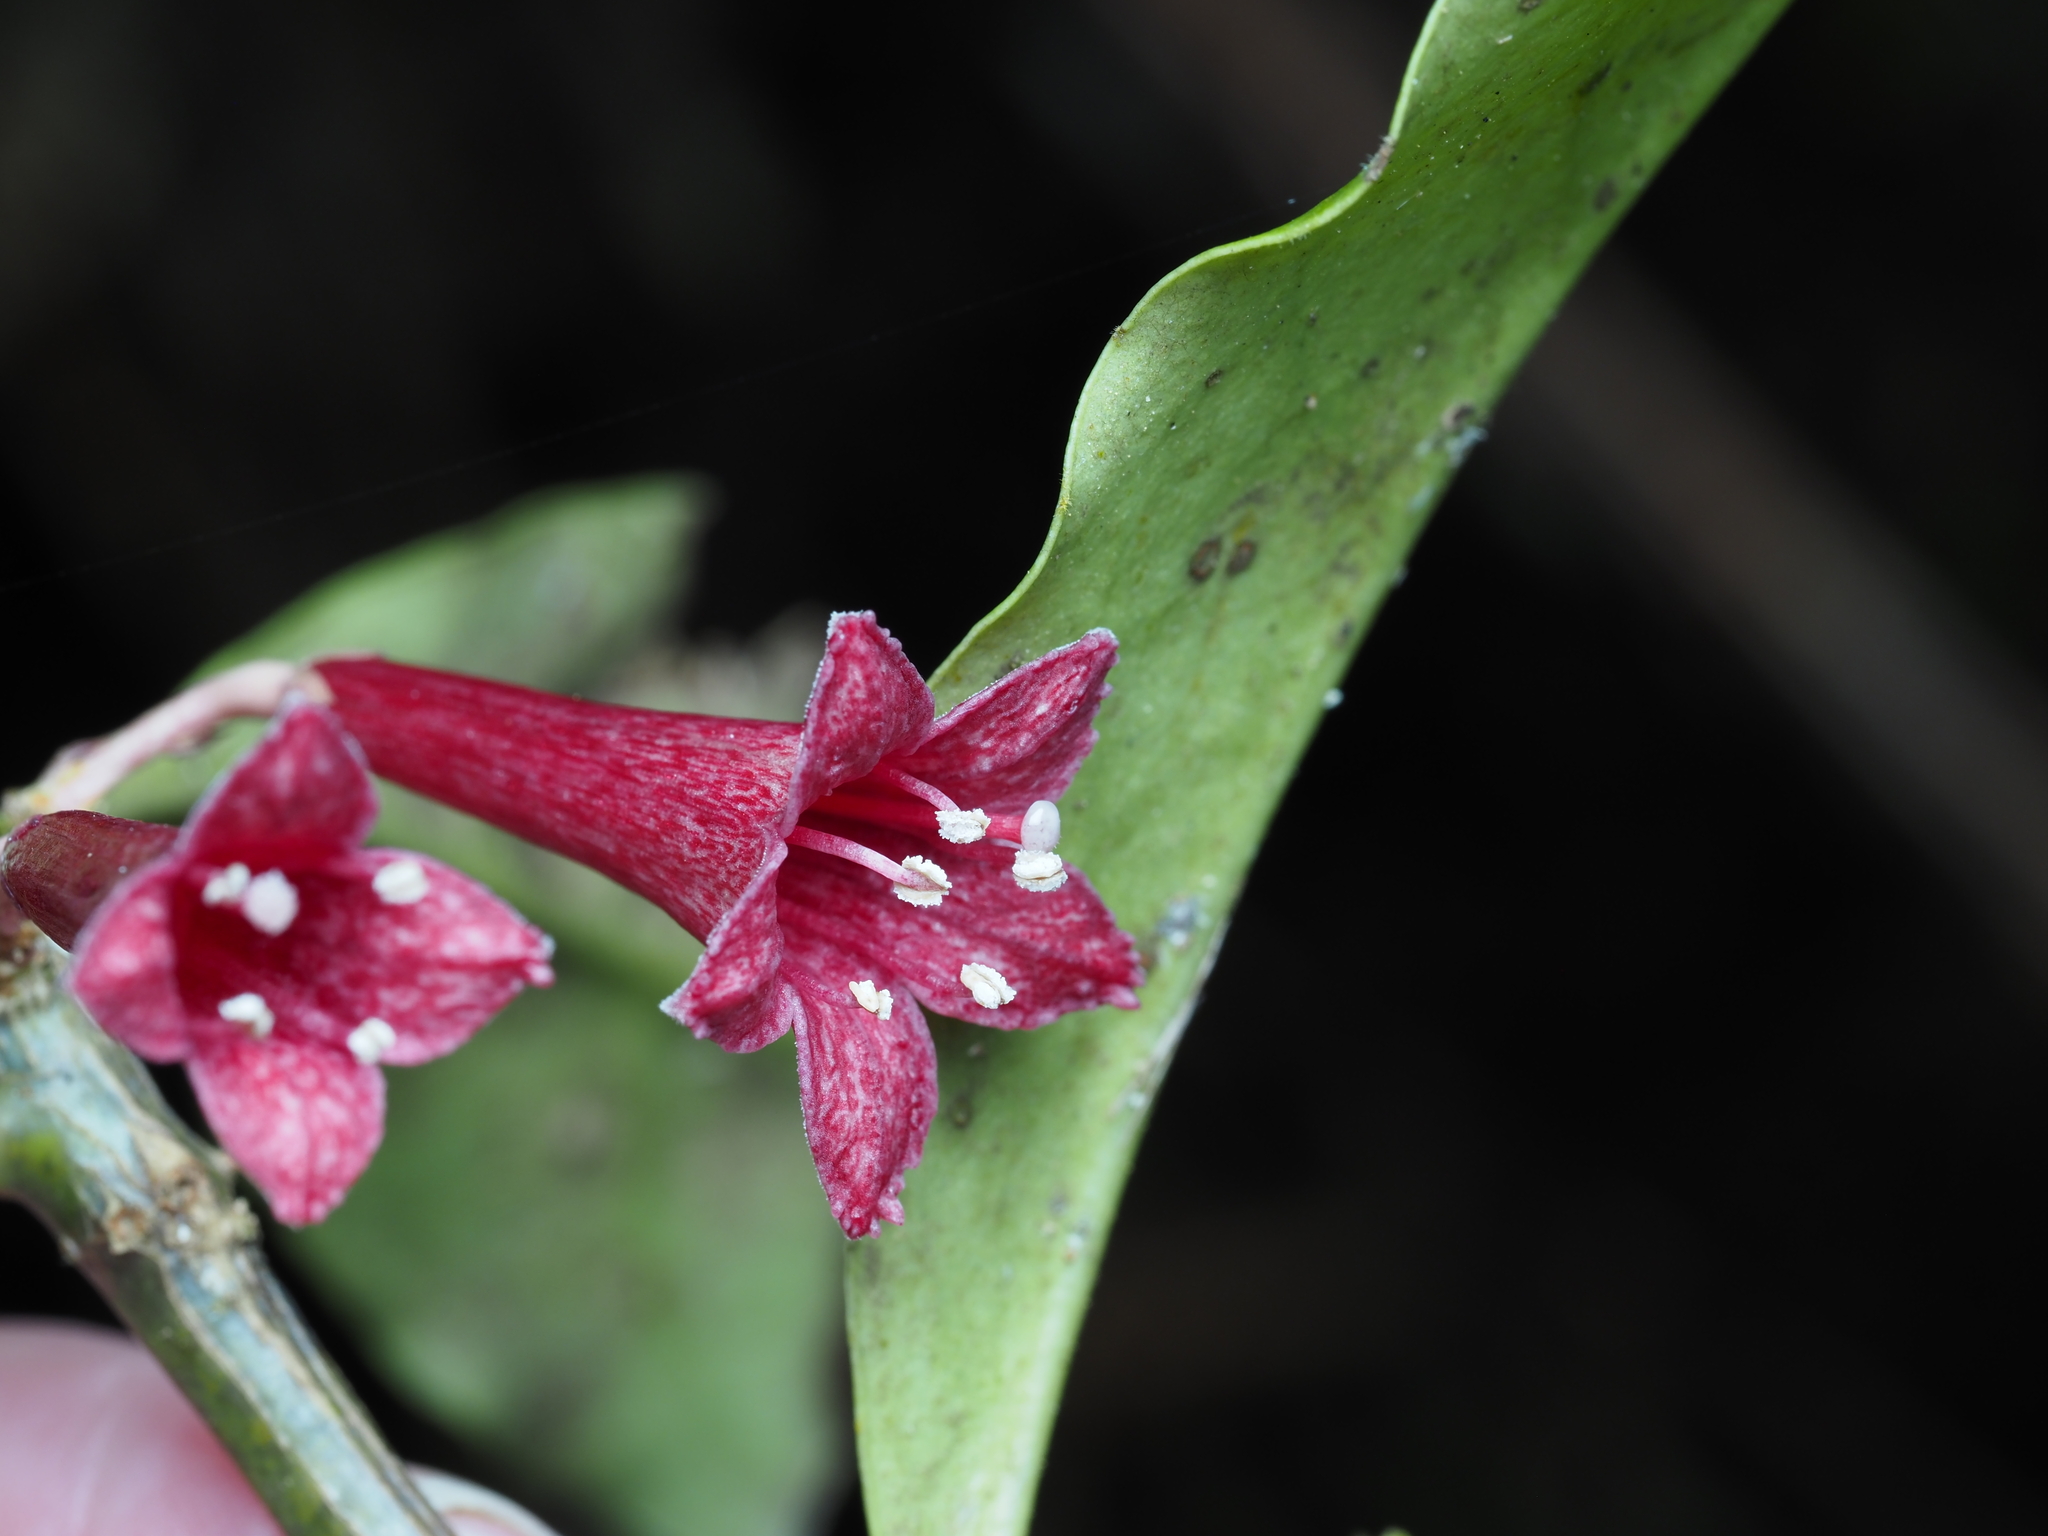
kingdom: Plantae
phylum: Tracheophyta
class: Magnoliopsida
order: Asterales
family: Alseuosmiaceae
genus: Alseuosmia
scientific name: Alseuosmia macrophylla
